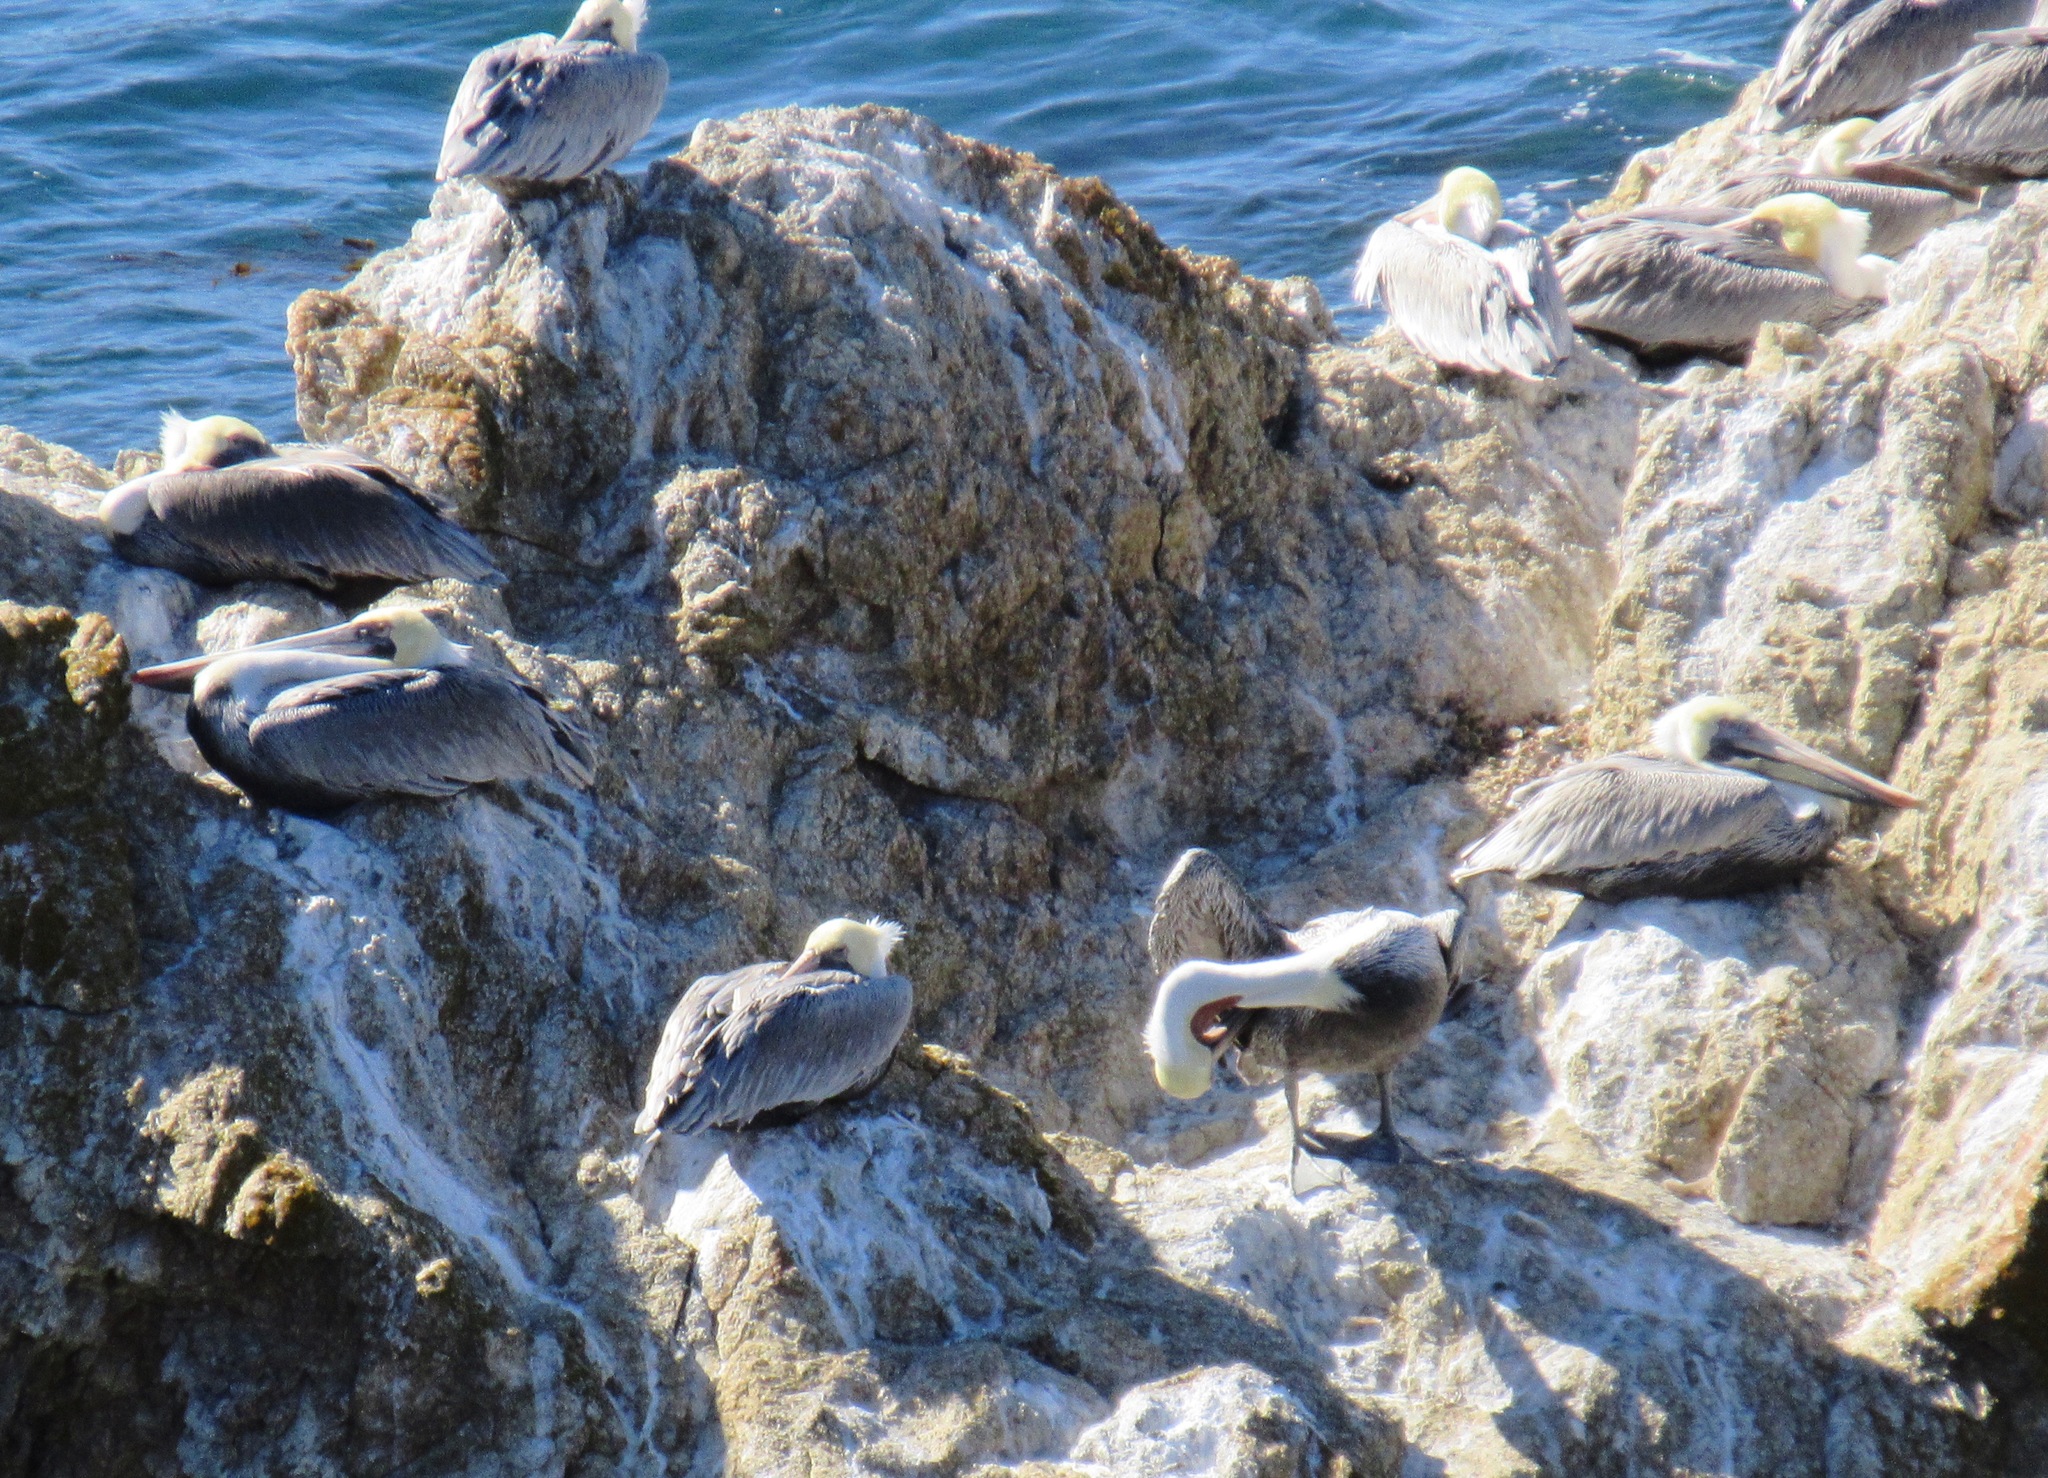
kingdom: Animalia
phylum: Chordata
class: Aves
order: Pelecaniformes
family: Pelecanidae
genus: Pelecanus
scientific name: Pelecanus occidentalis
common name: Brown pelican
